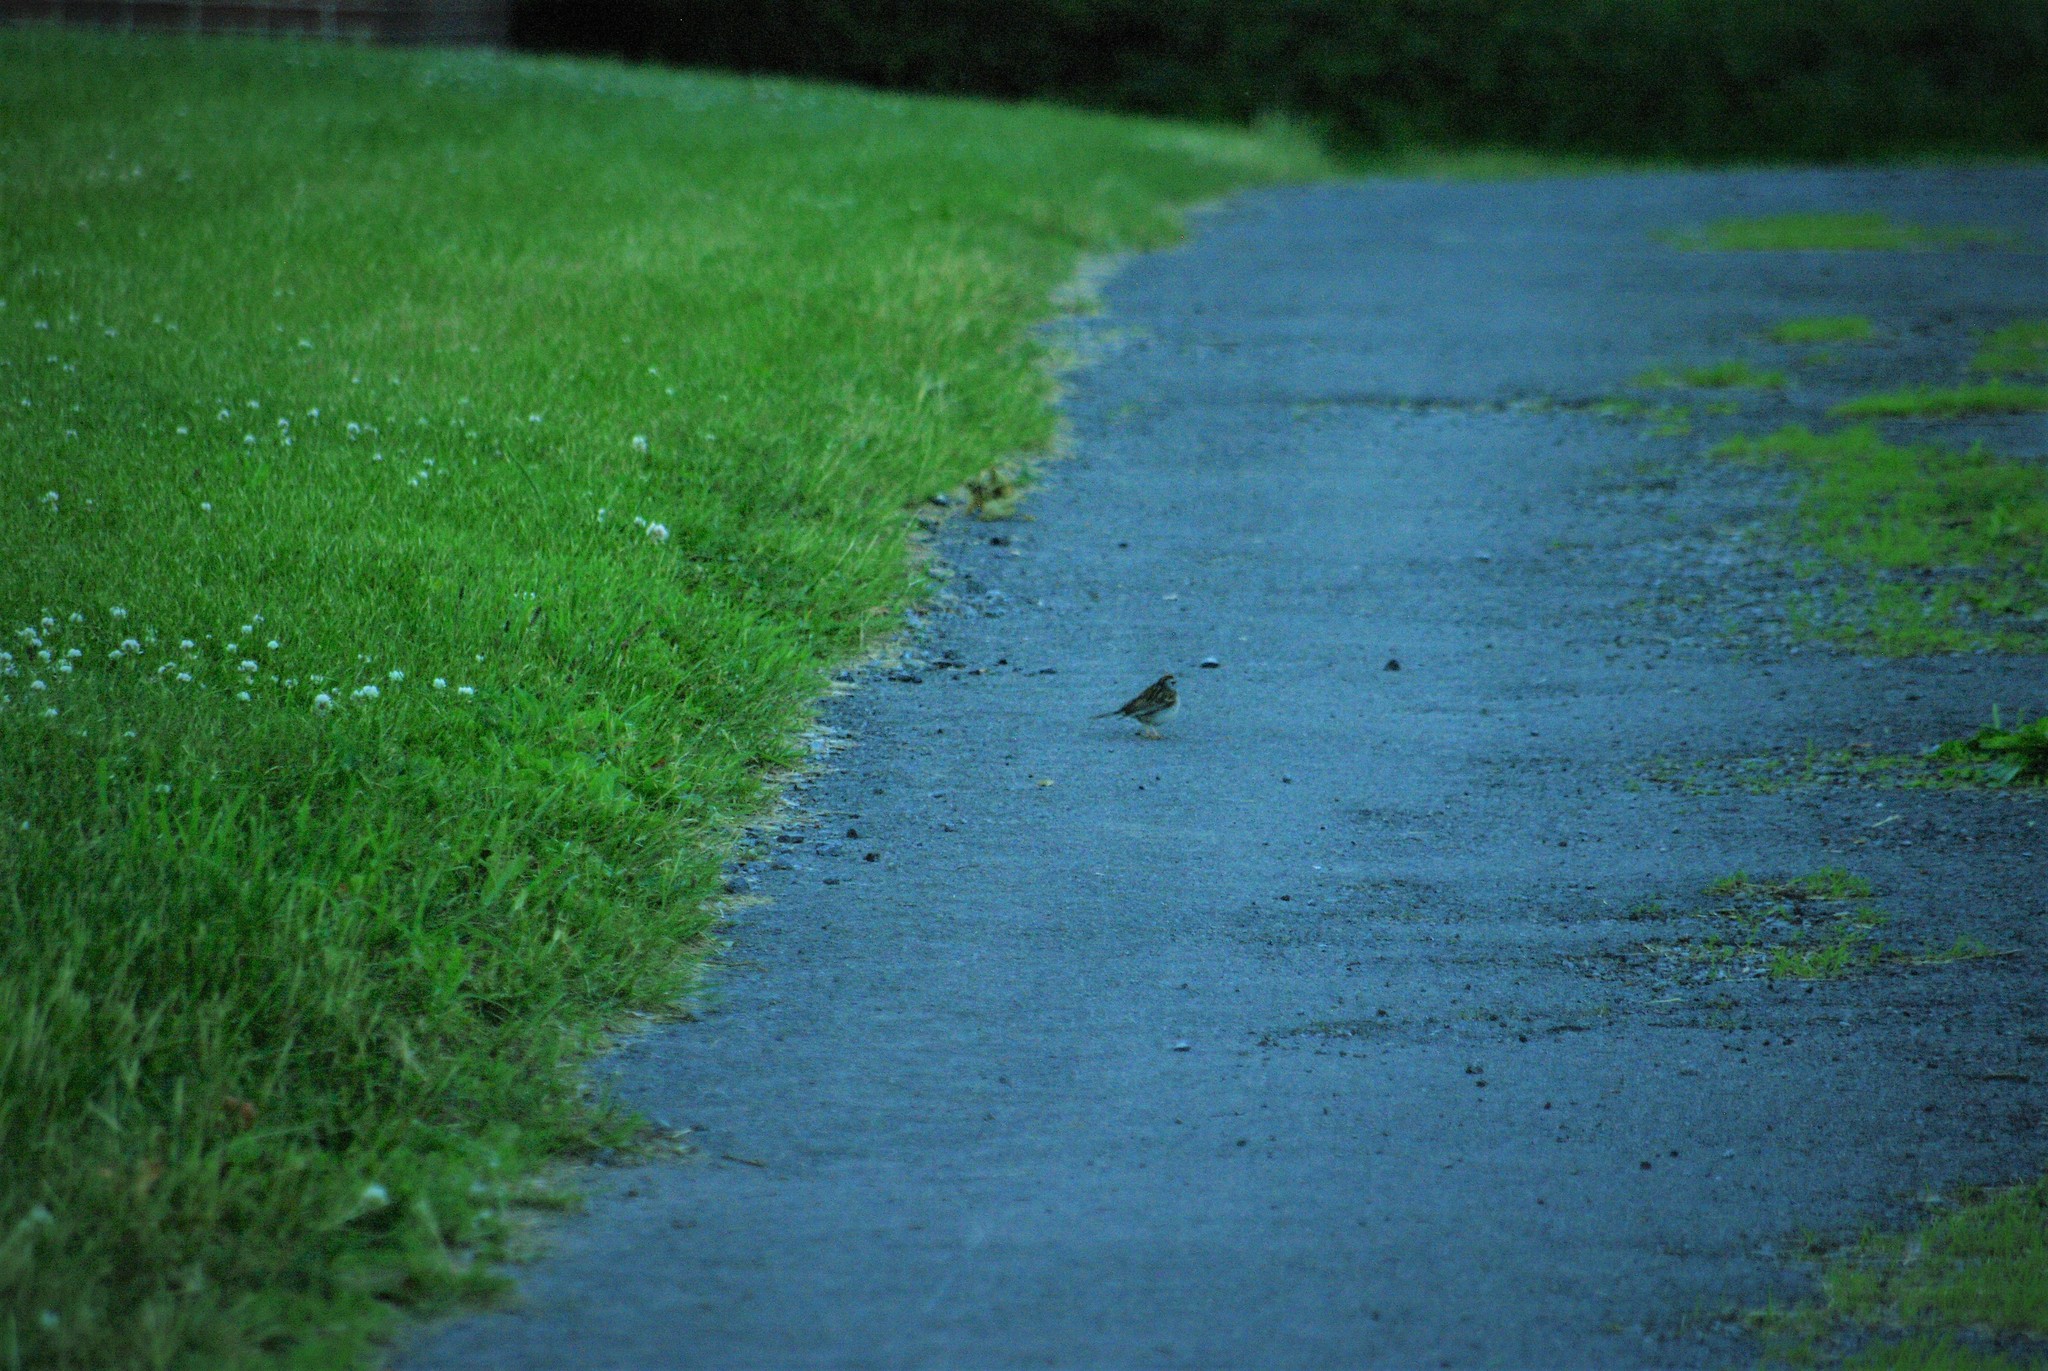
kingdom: Animalia
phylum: Chordata
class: Aves
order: Passeriformes
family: Passerellidae
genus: Spizella
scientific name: Spizella passerina
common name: Chipping sparrow
